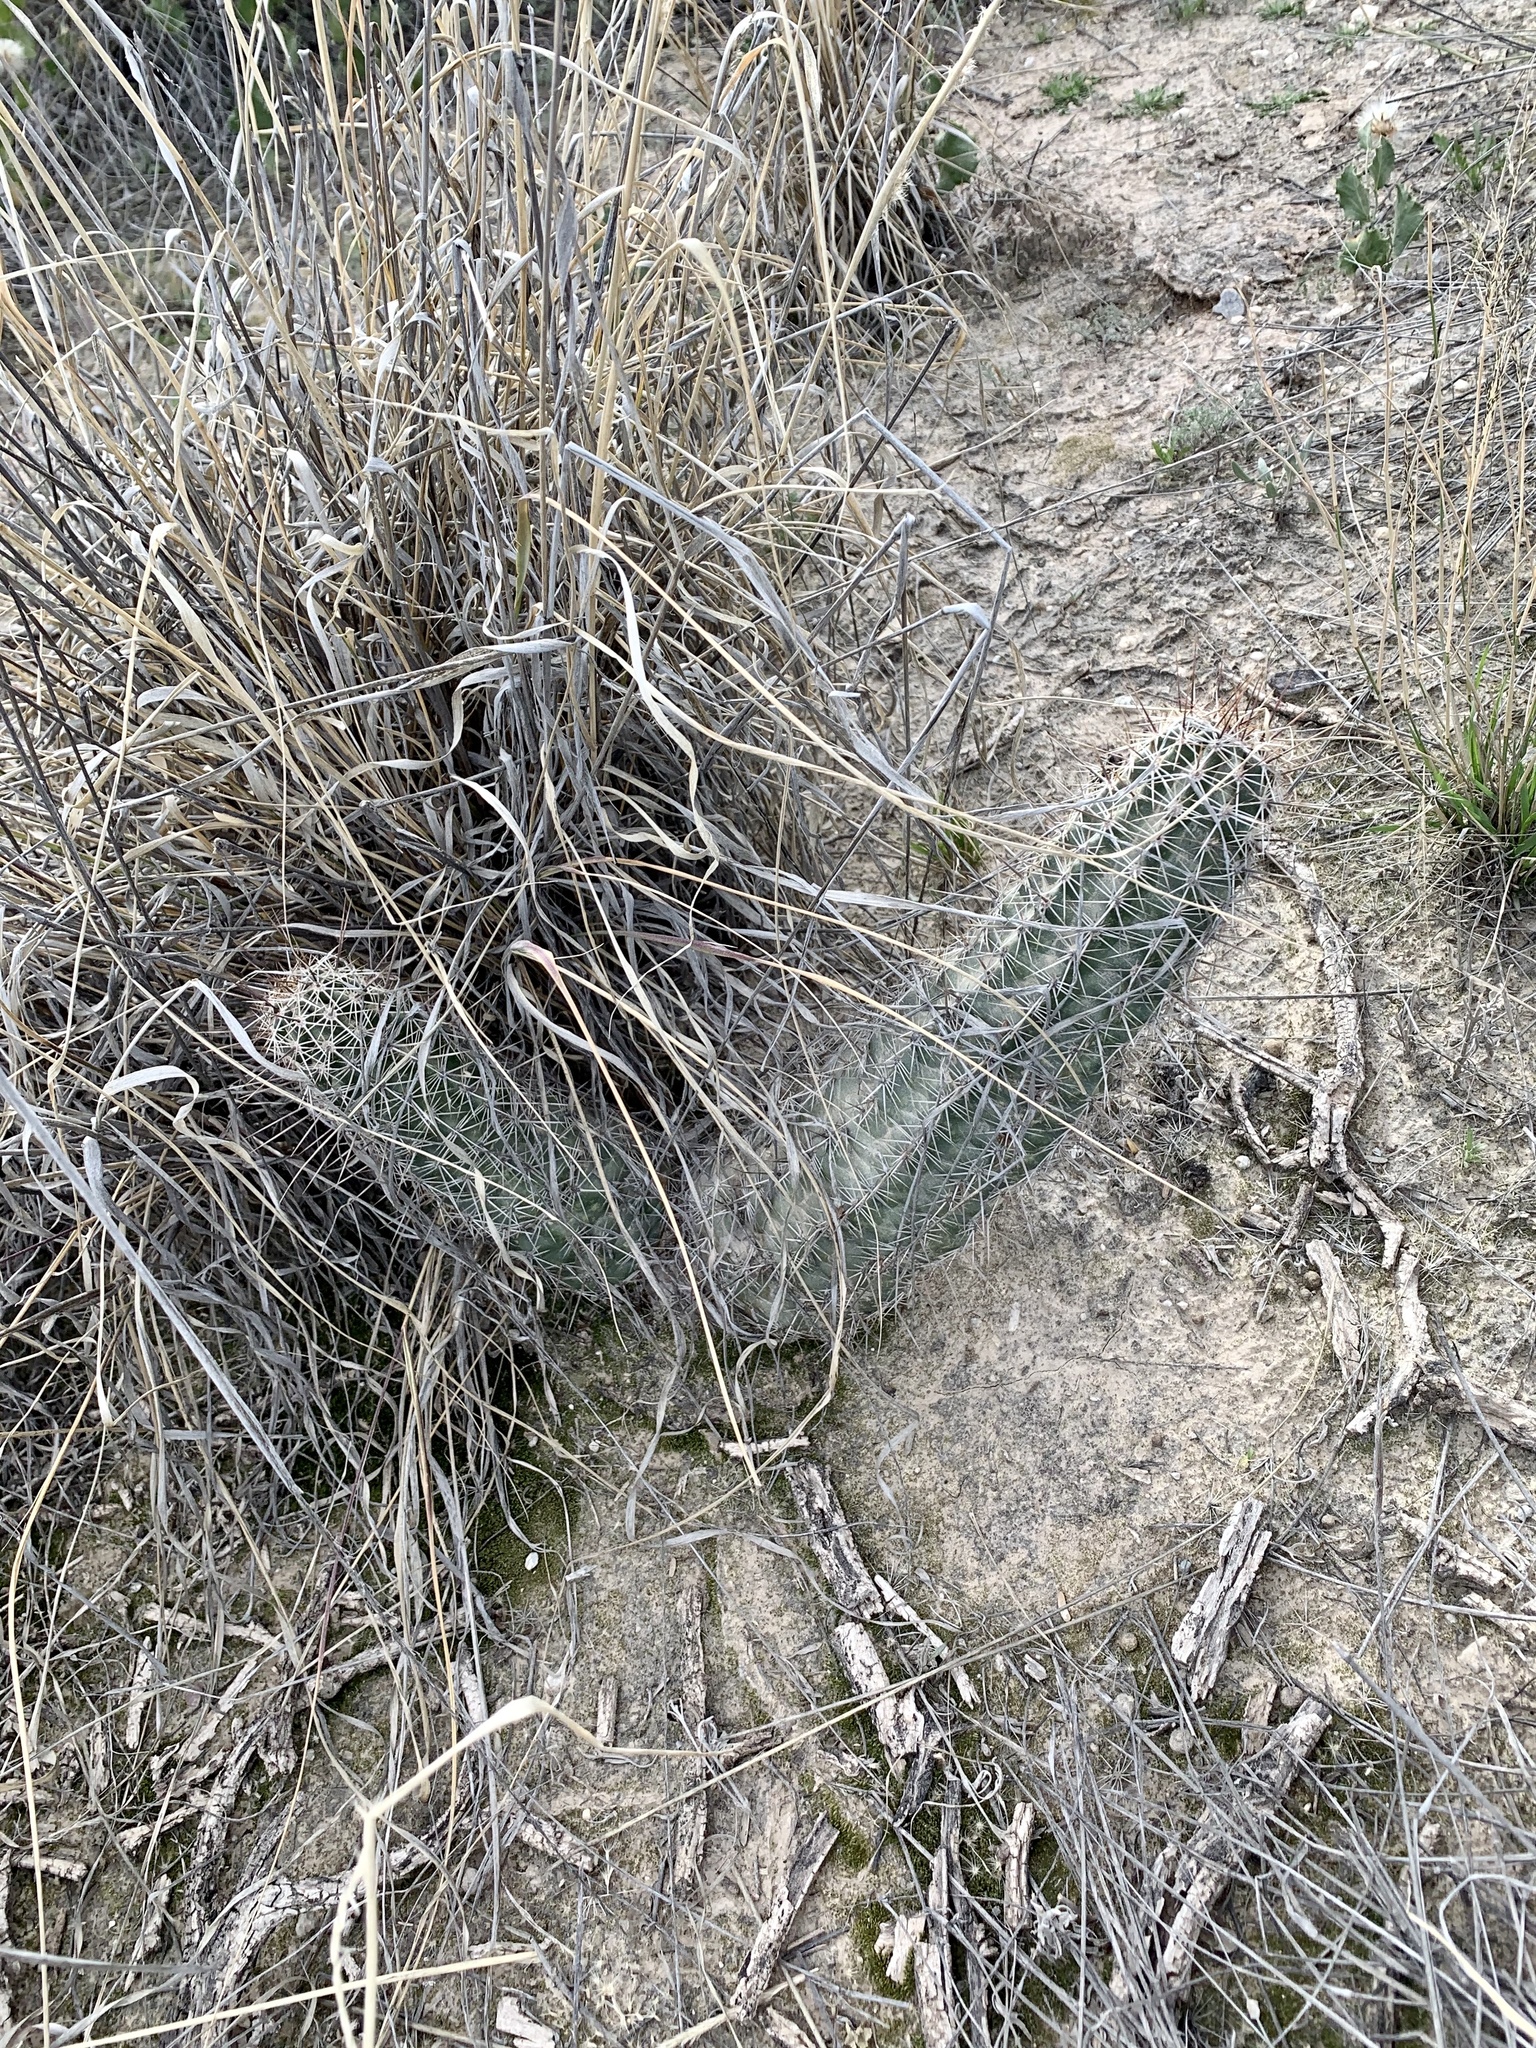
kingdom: Plantae
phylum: Tracheophyta
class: Magnoliopsida
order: Caryophyllales
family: Cactaceae
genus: Echinocereus
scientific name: Echinocereus fasciculatus
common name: Bundle hedgehog
